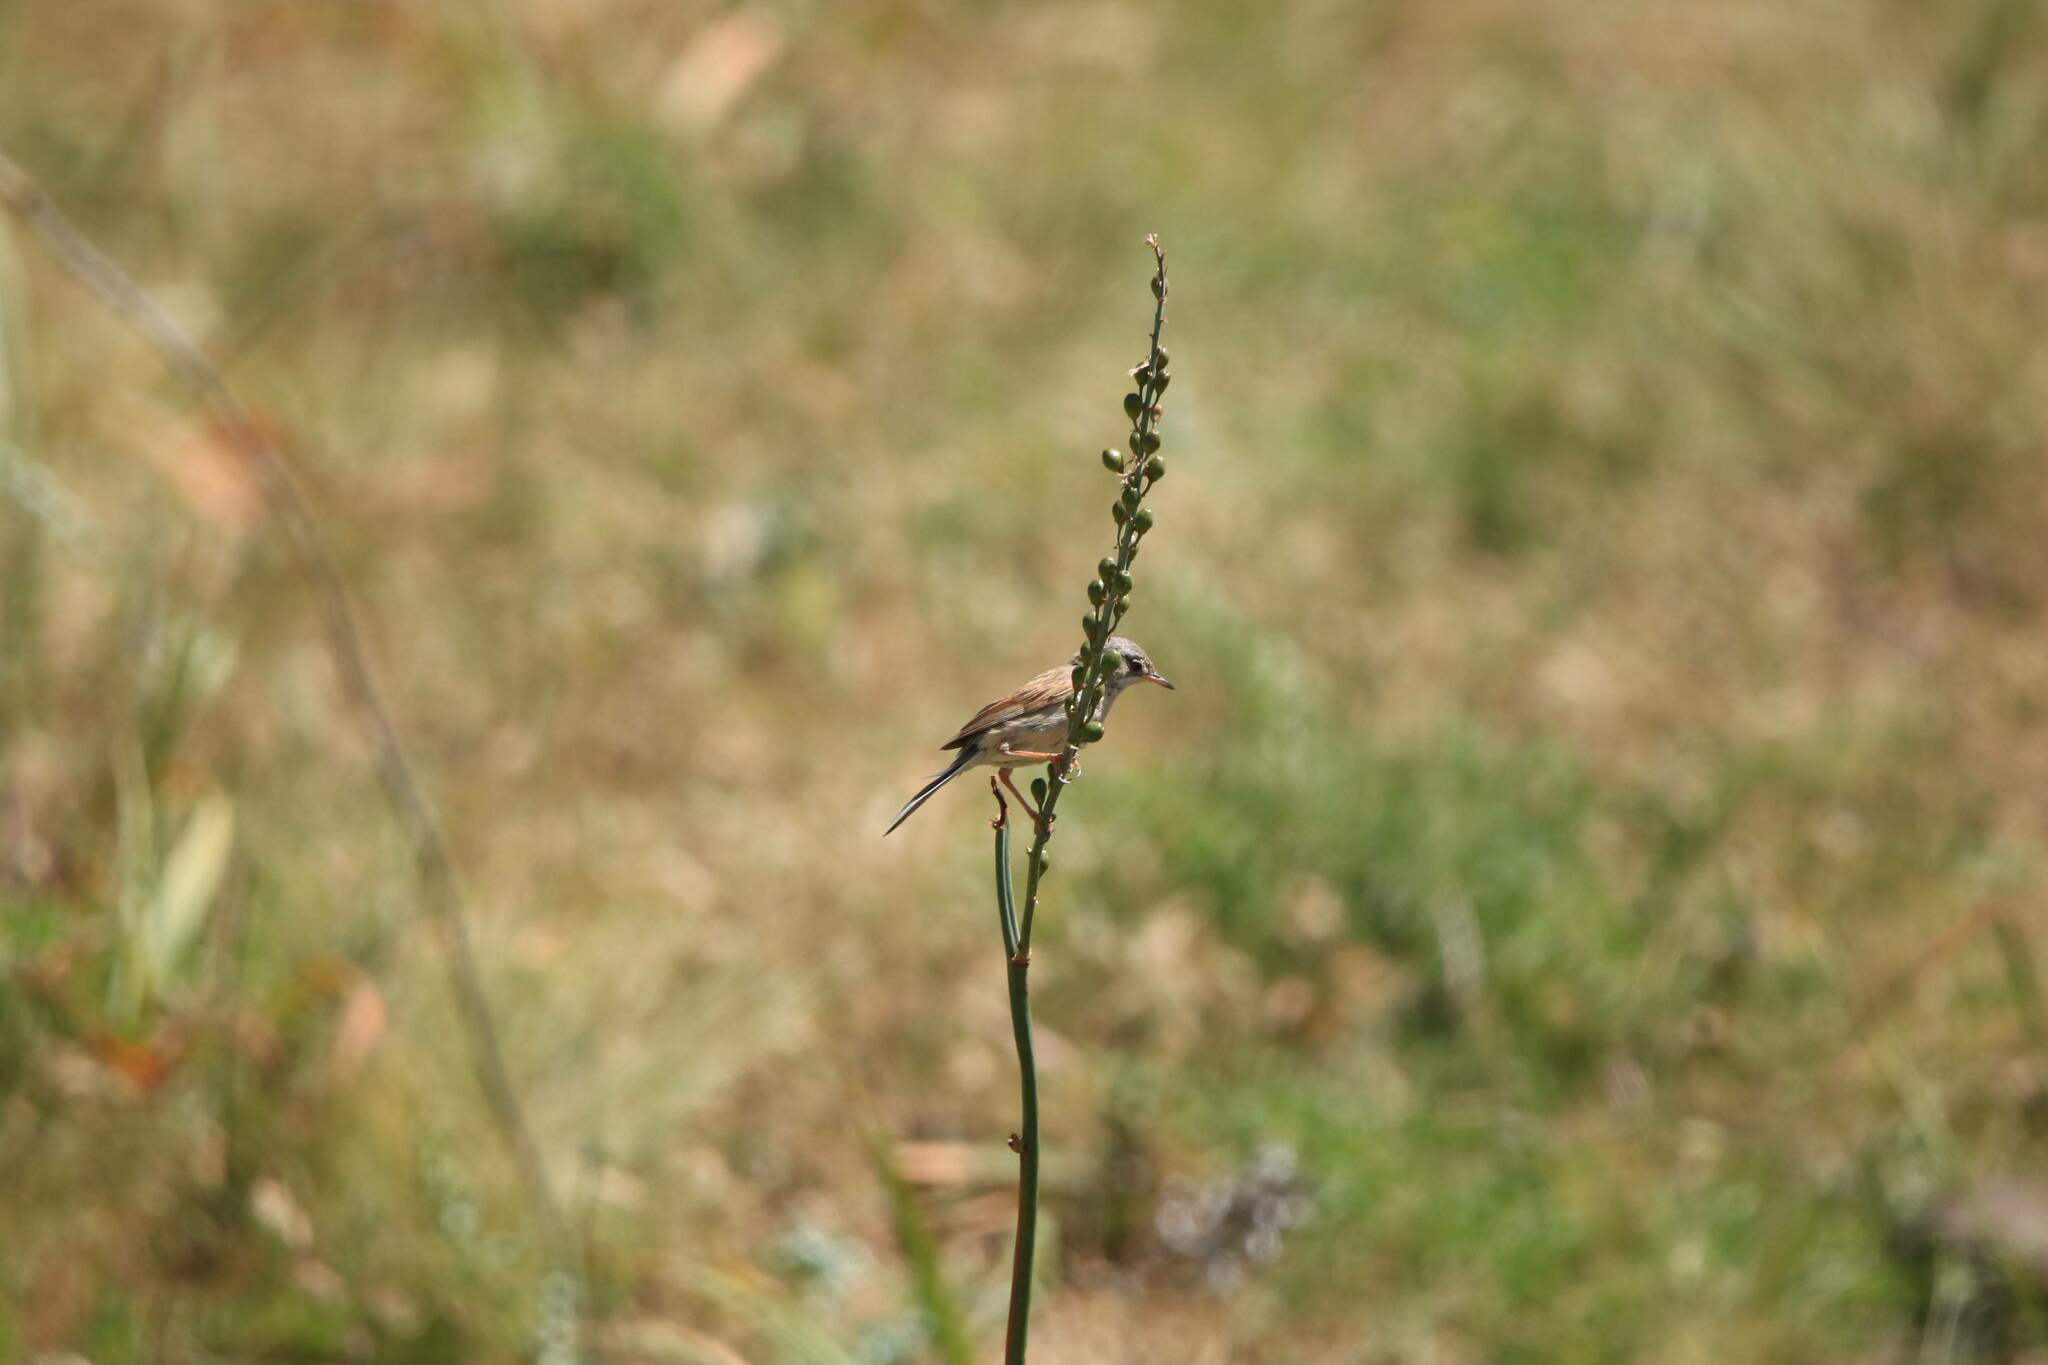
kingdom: Animalia
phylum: Chordata
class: Aves
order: Passeriformes
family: Sylviidae
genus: Sylvia
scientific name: Sylvia communis
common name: Common whitethroat
